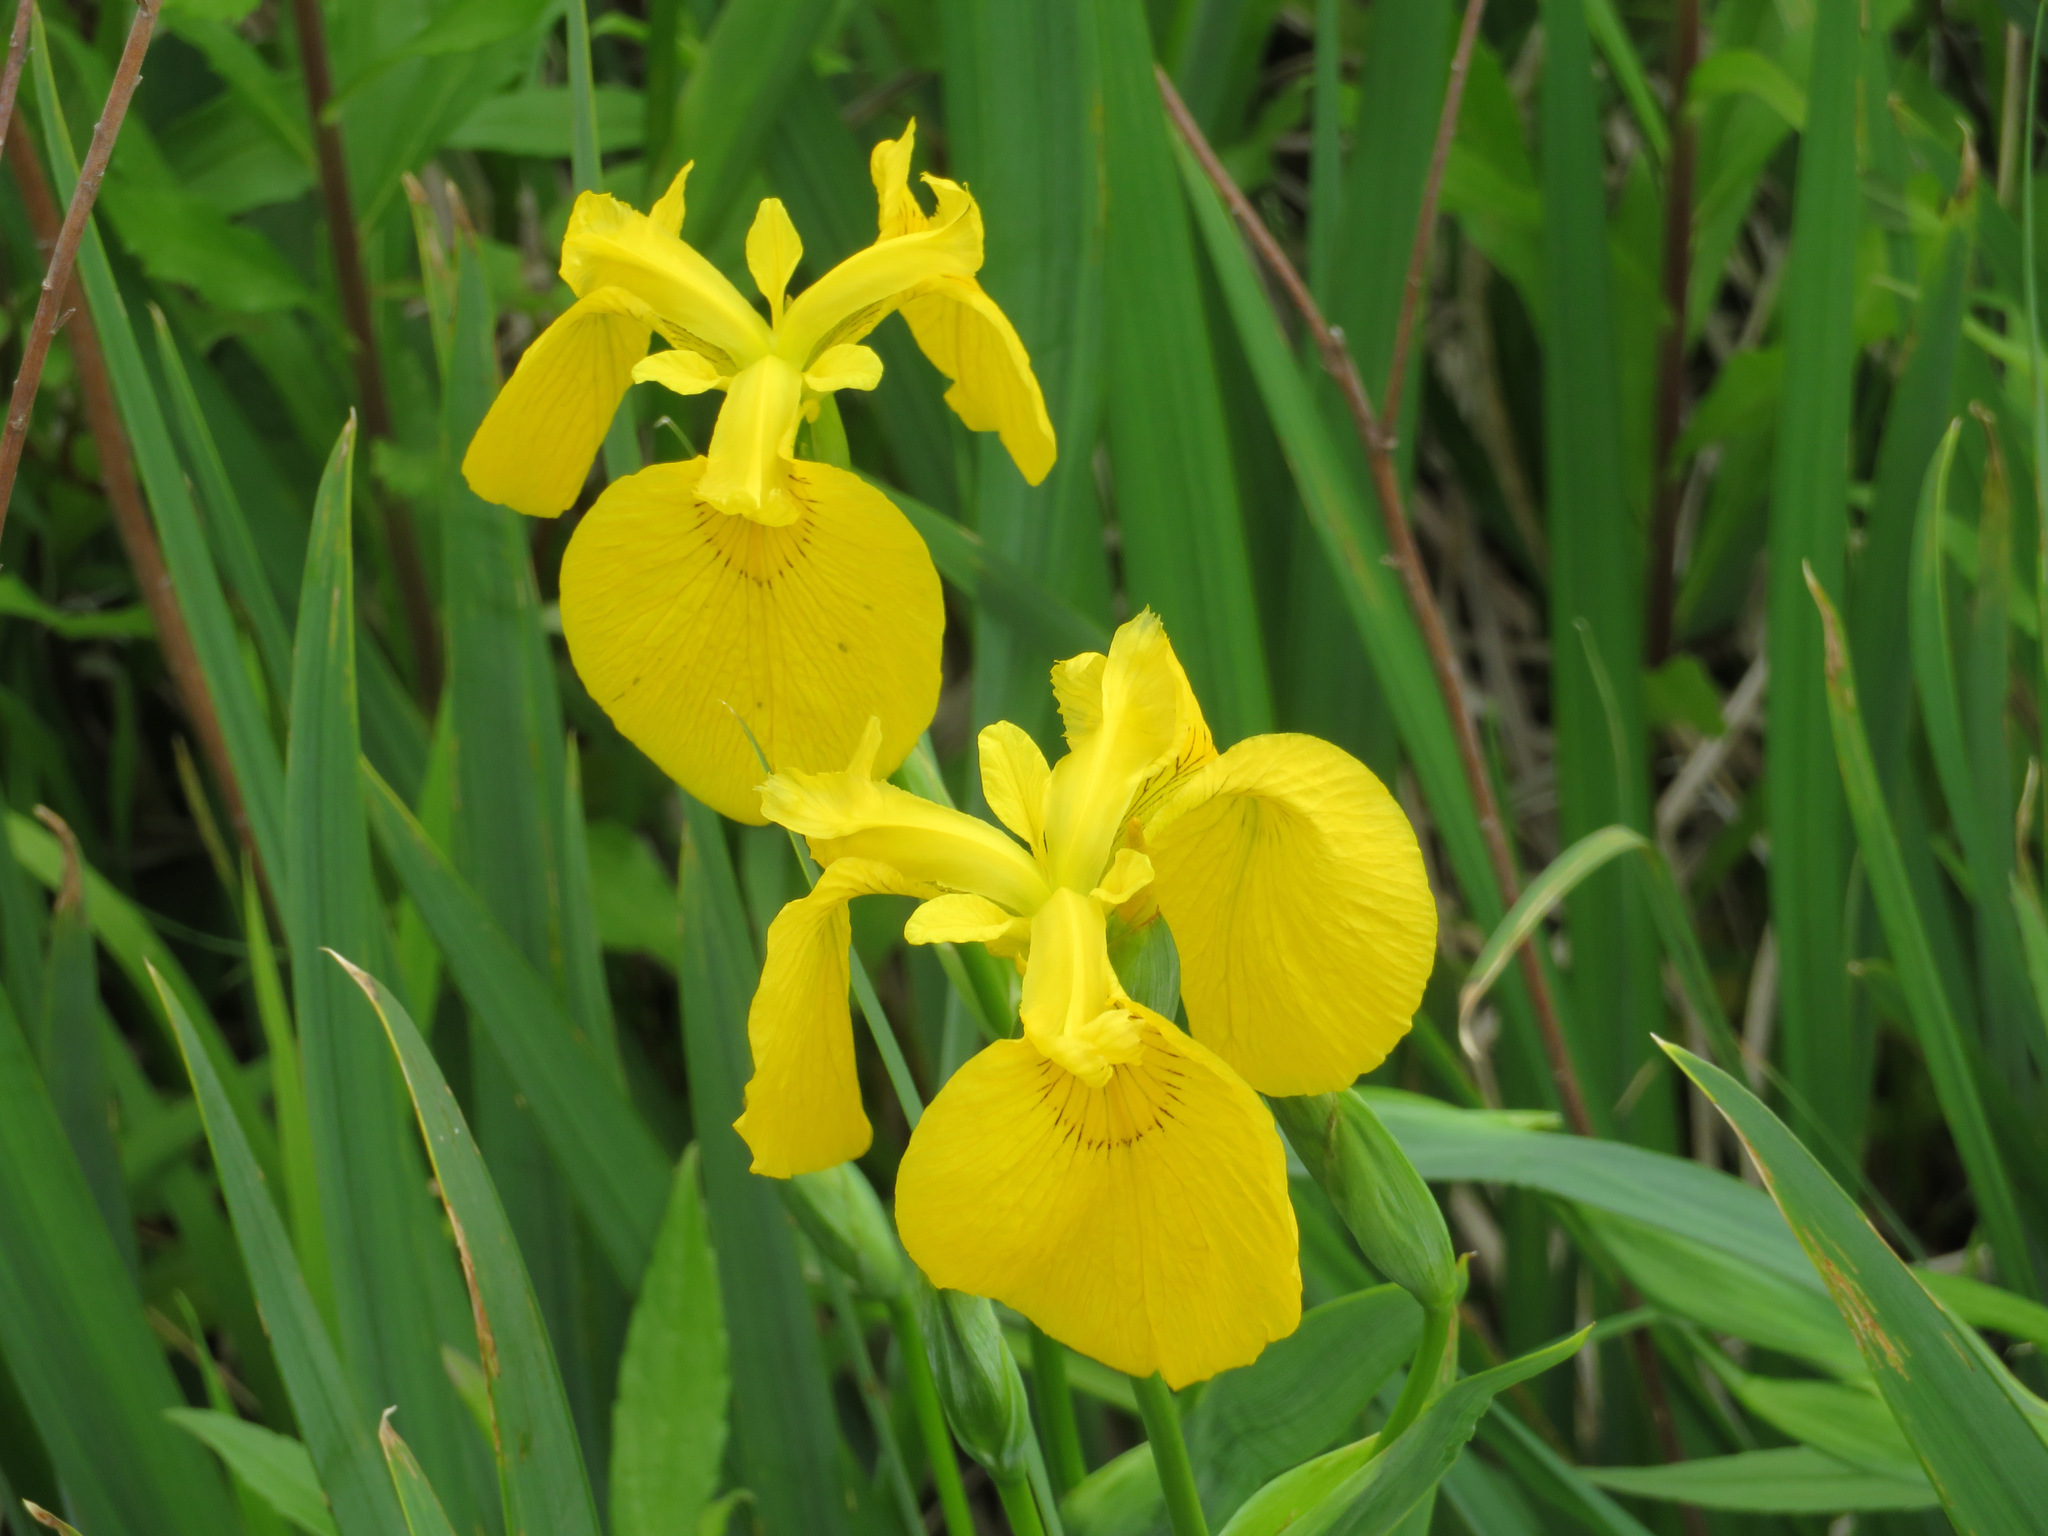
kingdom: Plantae
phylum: Tracheophyta
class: Liliopsida
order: Asparagales
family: Iridaceae
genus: Iris
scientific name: Iris pseudacorus
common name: Yellow flag
